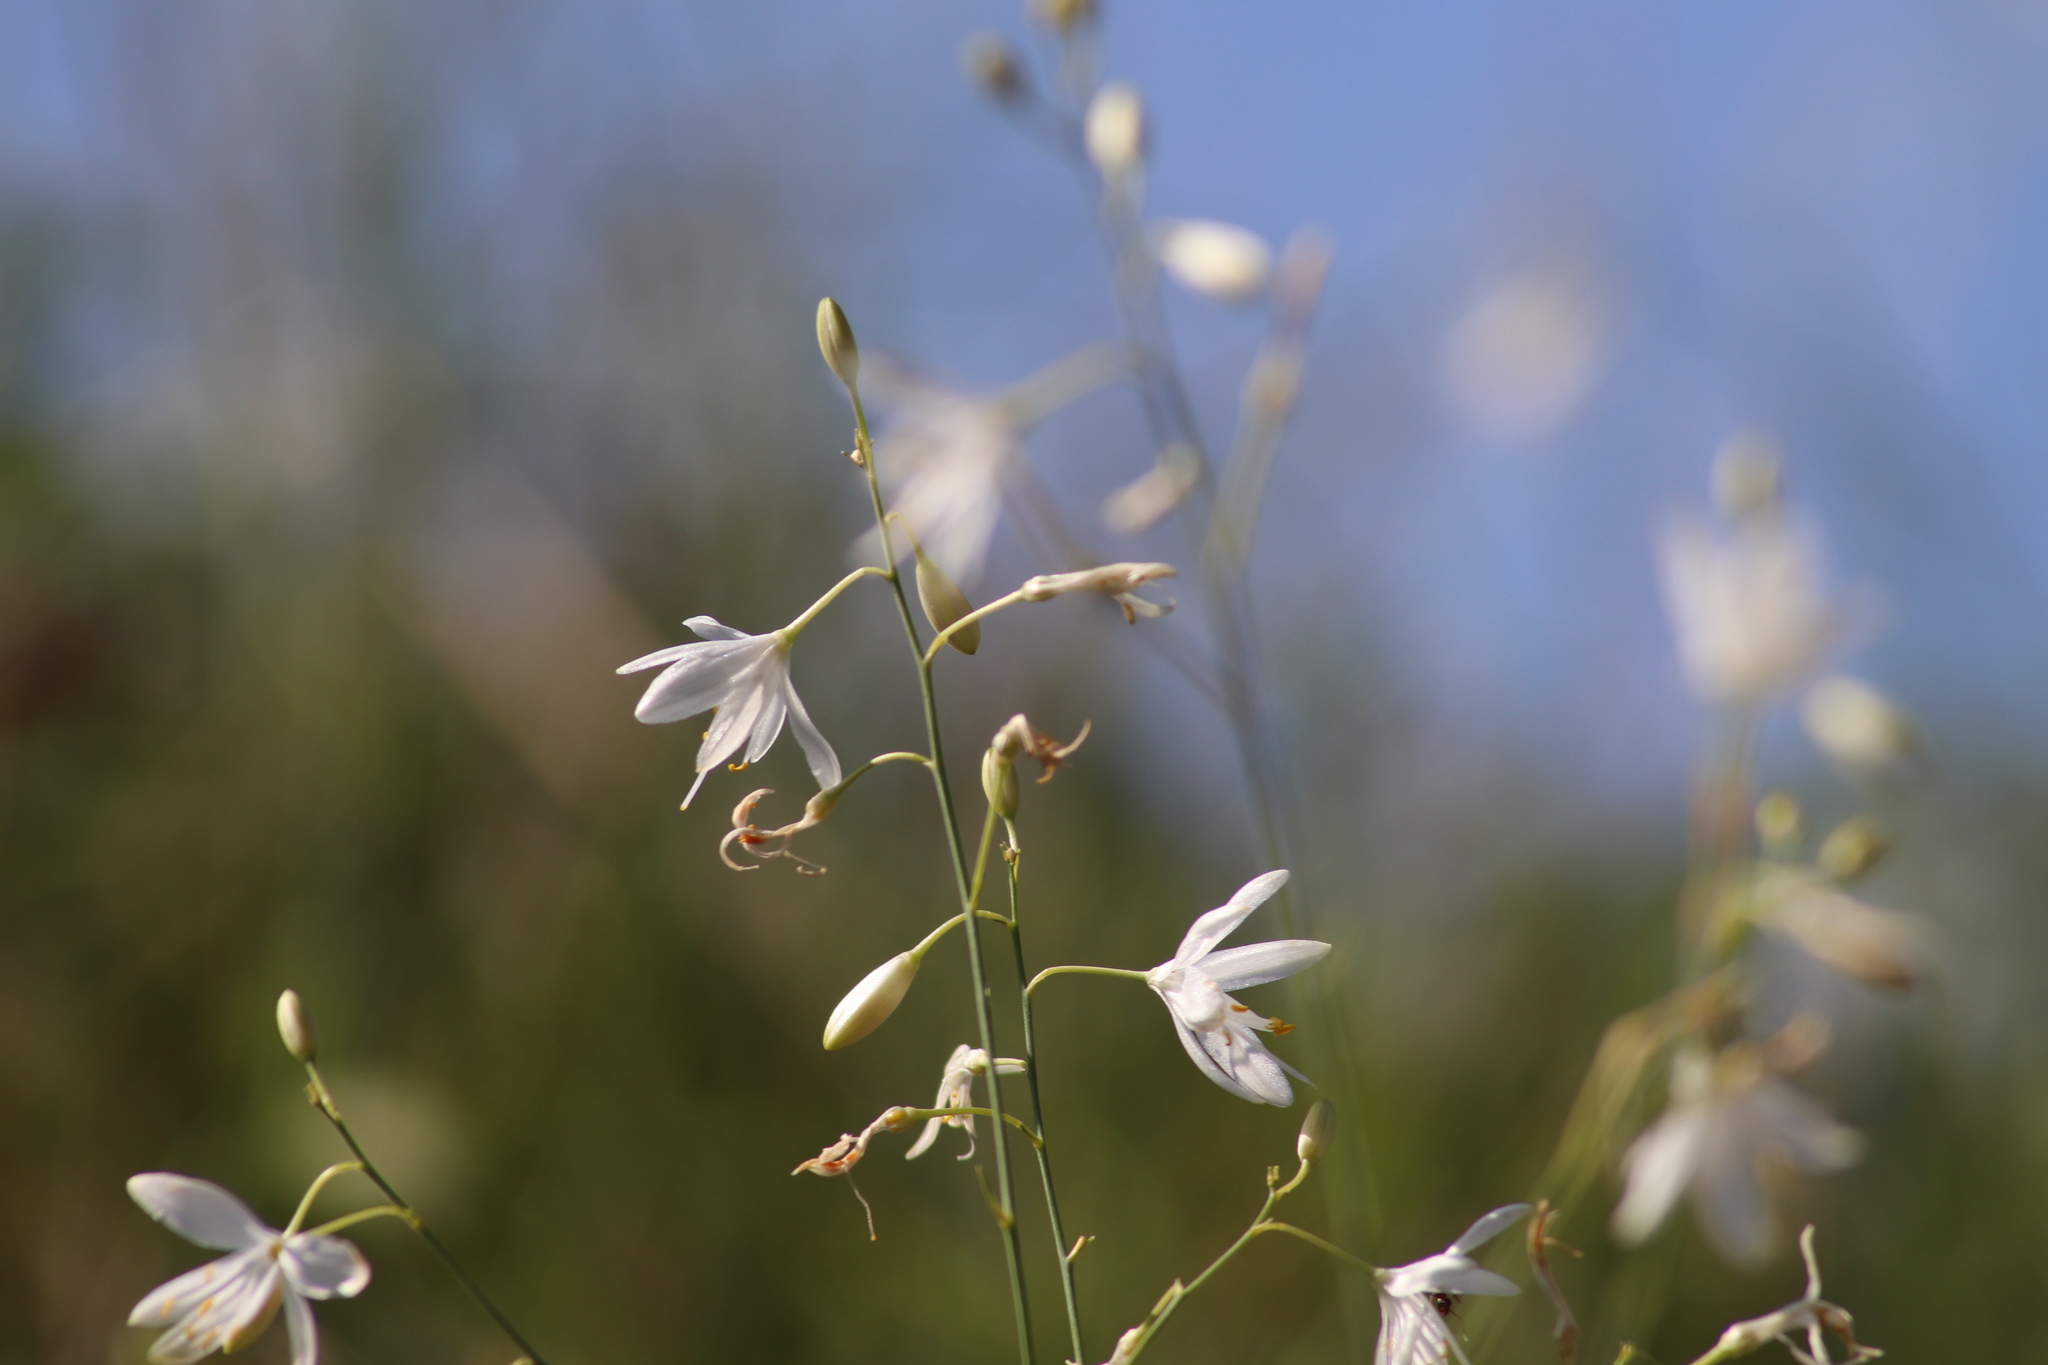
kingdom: Plantae
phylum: Tracheophyta
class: Liliopsida
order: Asparagales
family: Asparagaceae
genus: Anthericum
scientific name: Anthericum ramosum
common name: Branched st. bernard's-lily
